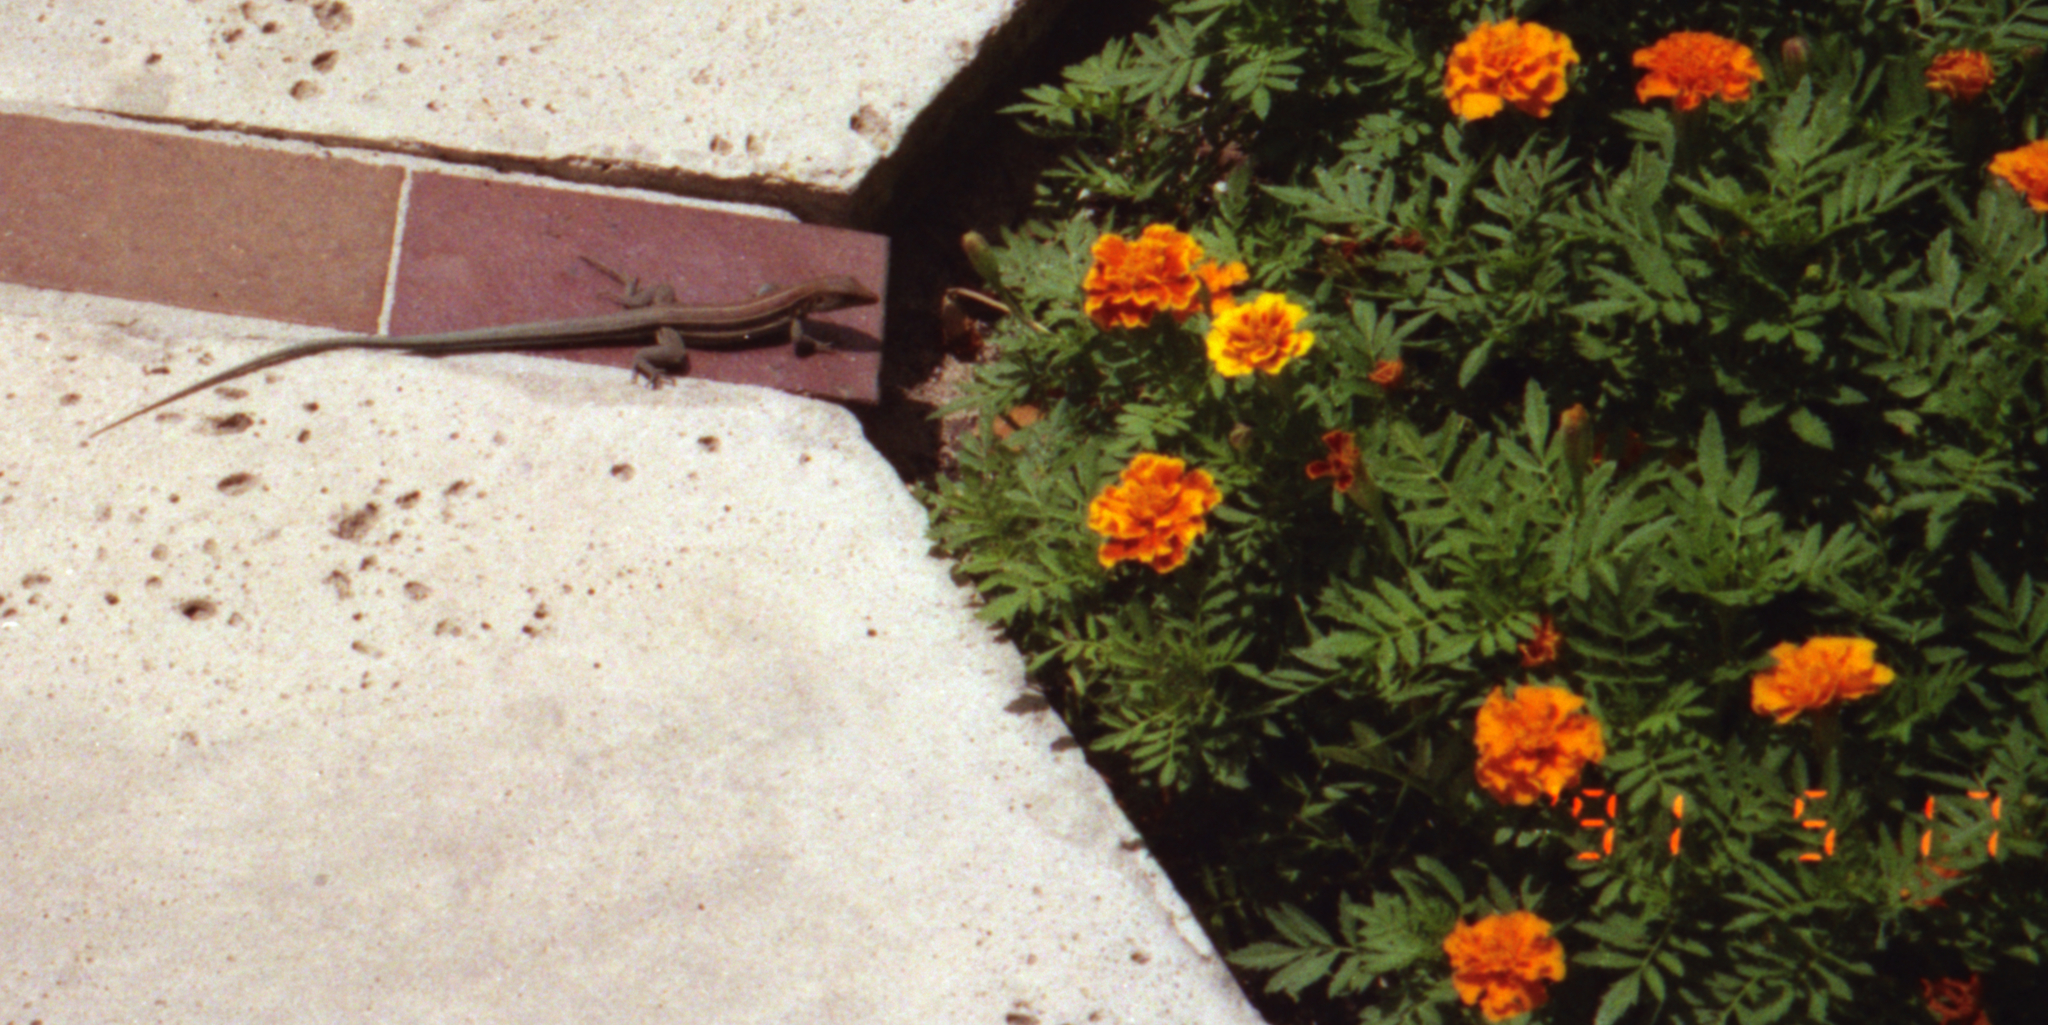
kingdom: Animalia
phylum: Chordata
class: Squamata
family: Teiidae
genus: Pholidoscelis
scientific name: Pholidoscelis auberi
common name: Auber's ameiva
